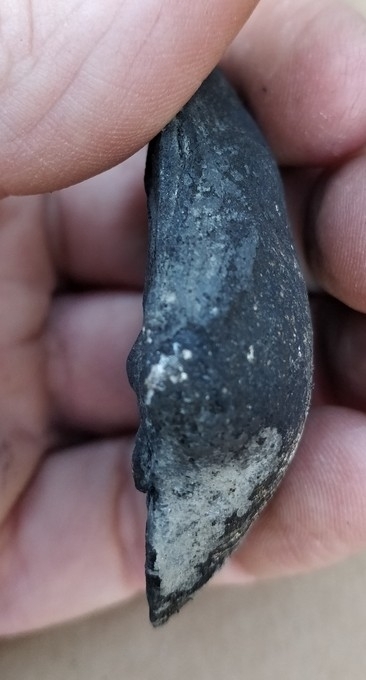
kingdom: Animalia
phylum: Mollusca
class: Bivalvia
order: Unionida
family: Unionidae
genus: Fusconaia
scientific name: Fusconaia flava
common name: Wabash pigtoe
